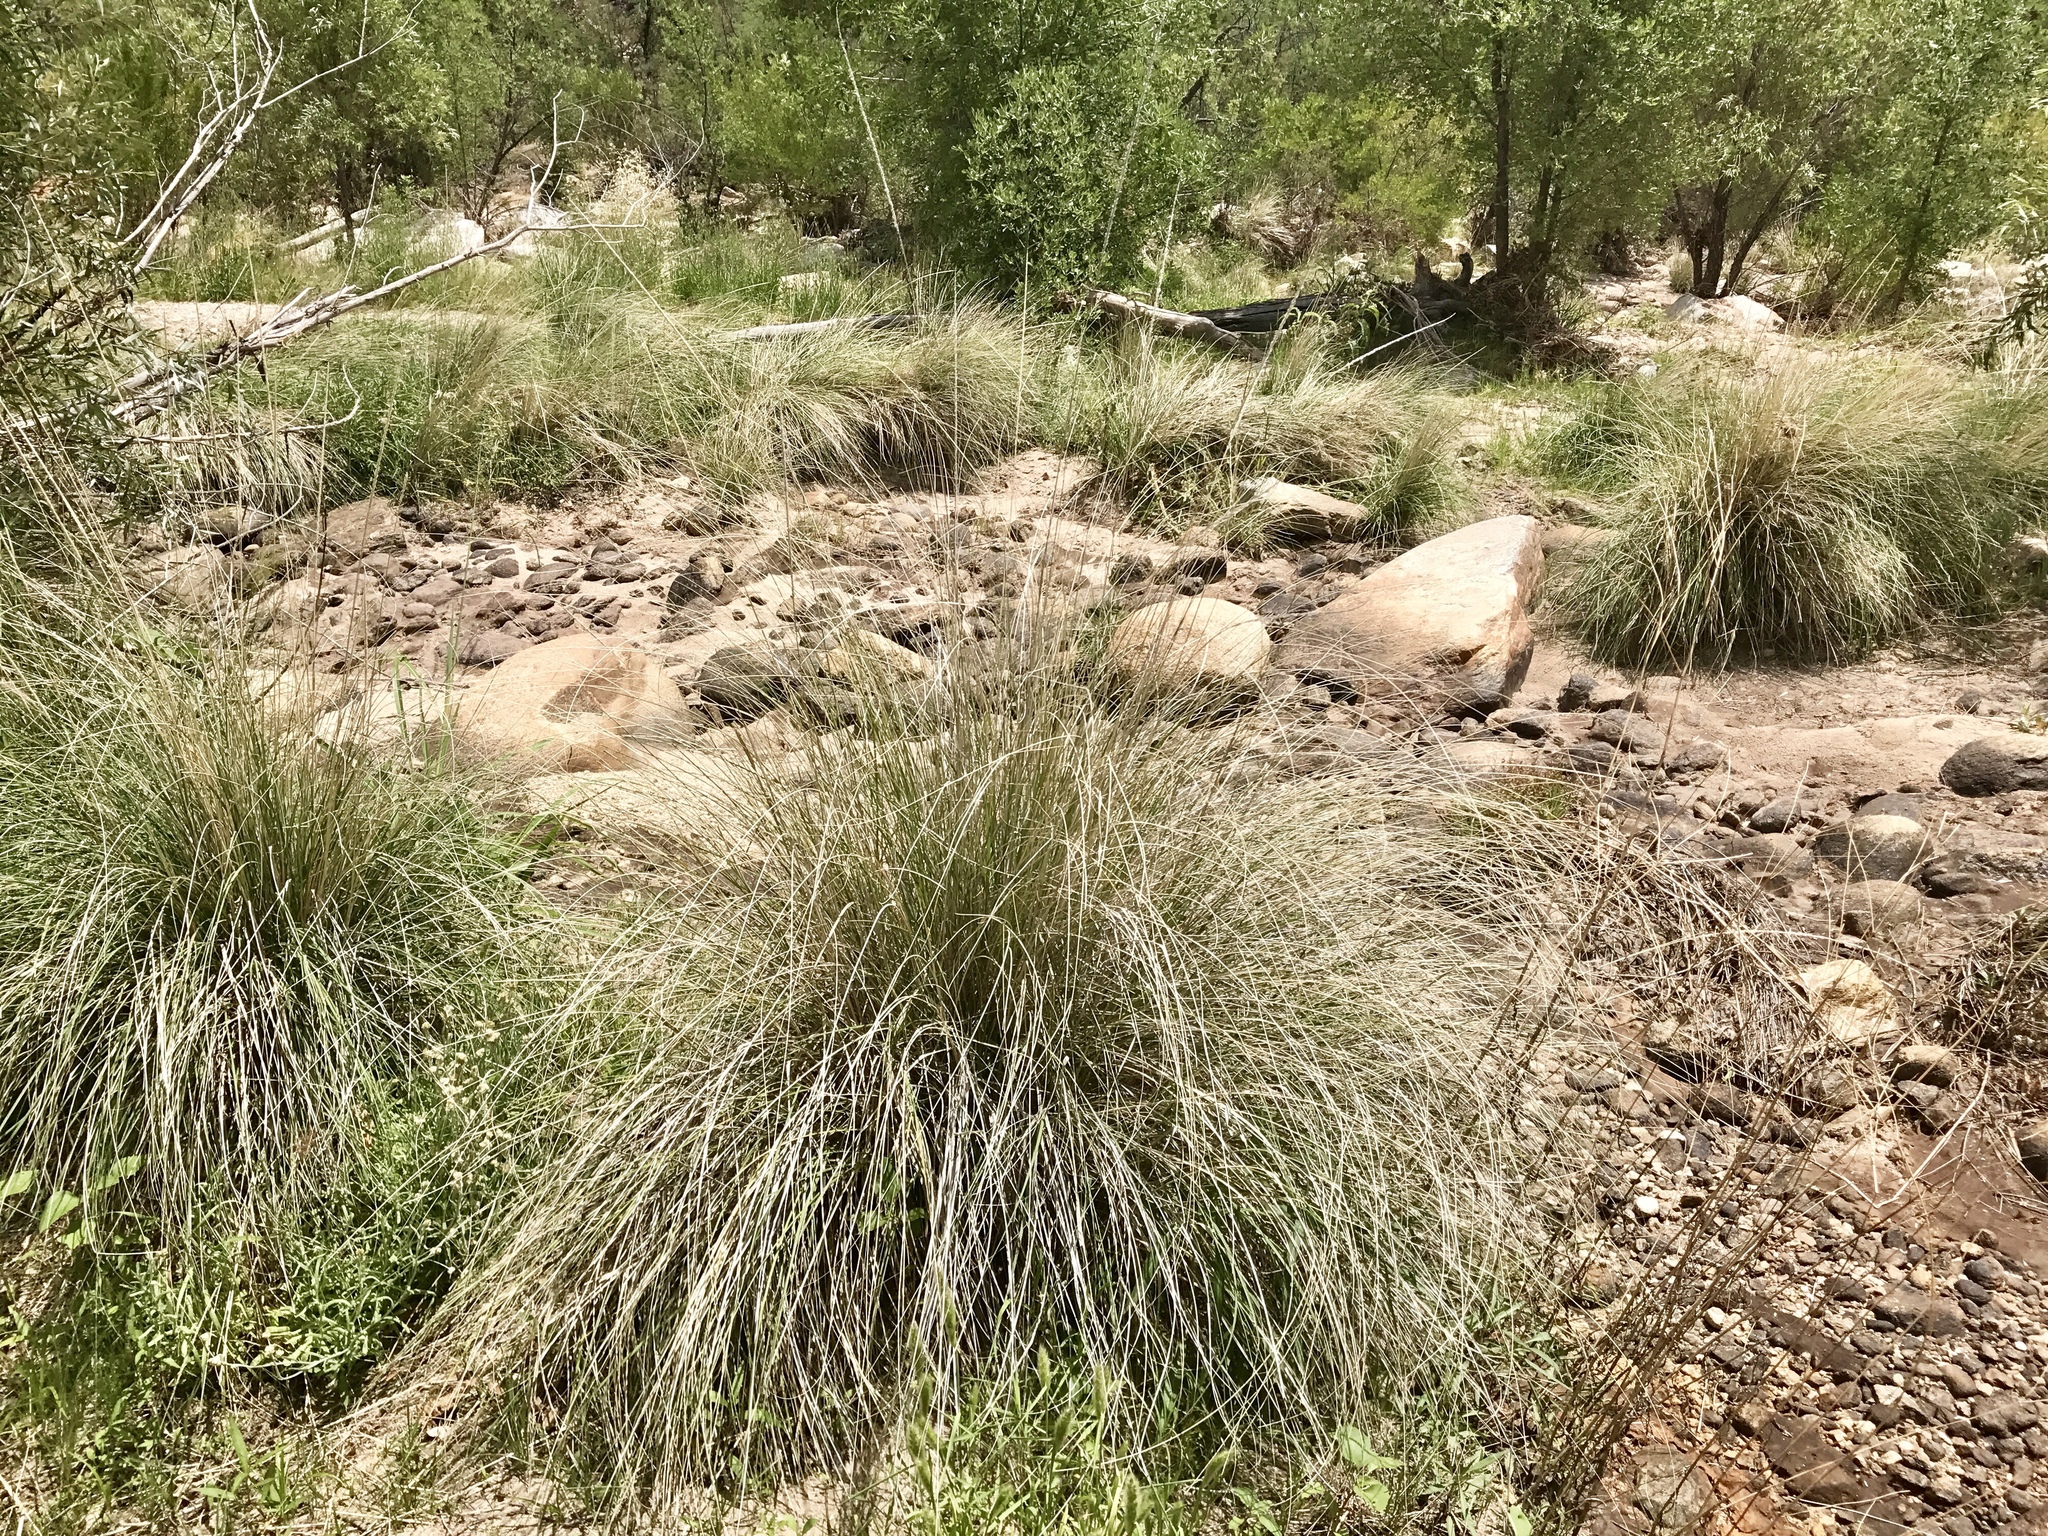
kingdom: Plantae
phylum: Tracheophyta
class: Liliopsida
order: Poales
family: Poaceae
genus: Muhlenbergia
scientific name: Muhlenbergia rigens
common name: Deer grass
